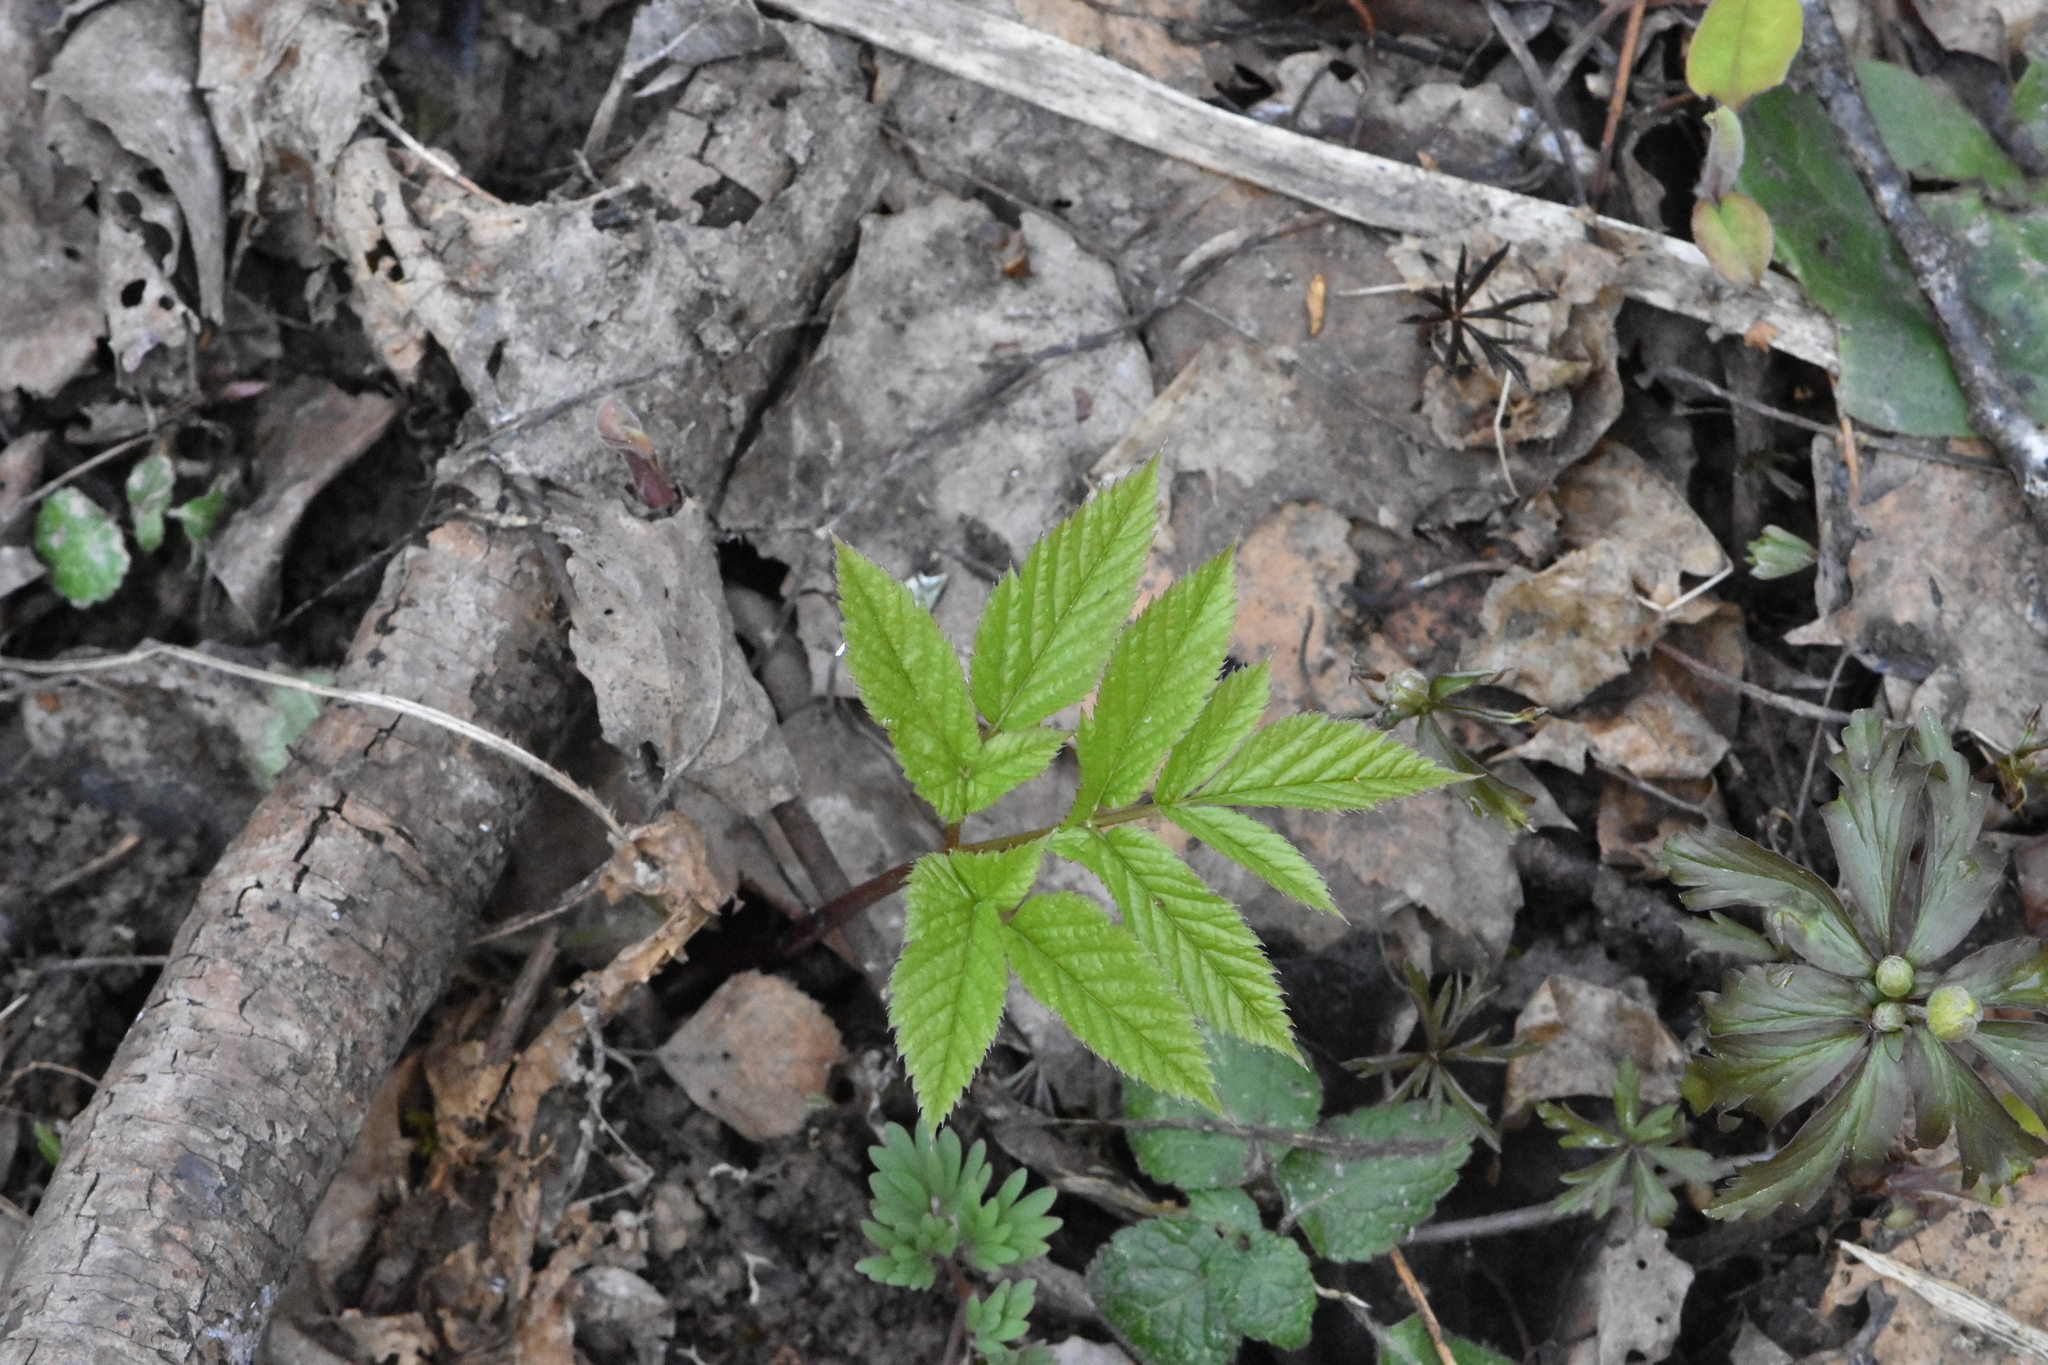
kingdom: Plantae
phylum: Tracheophyta
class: Magnoliopsida
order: Apiales
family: Apiaceae
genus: Aegopodium
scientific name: Aegopodium podagraria
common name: Ground-elder
